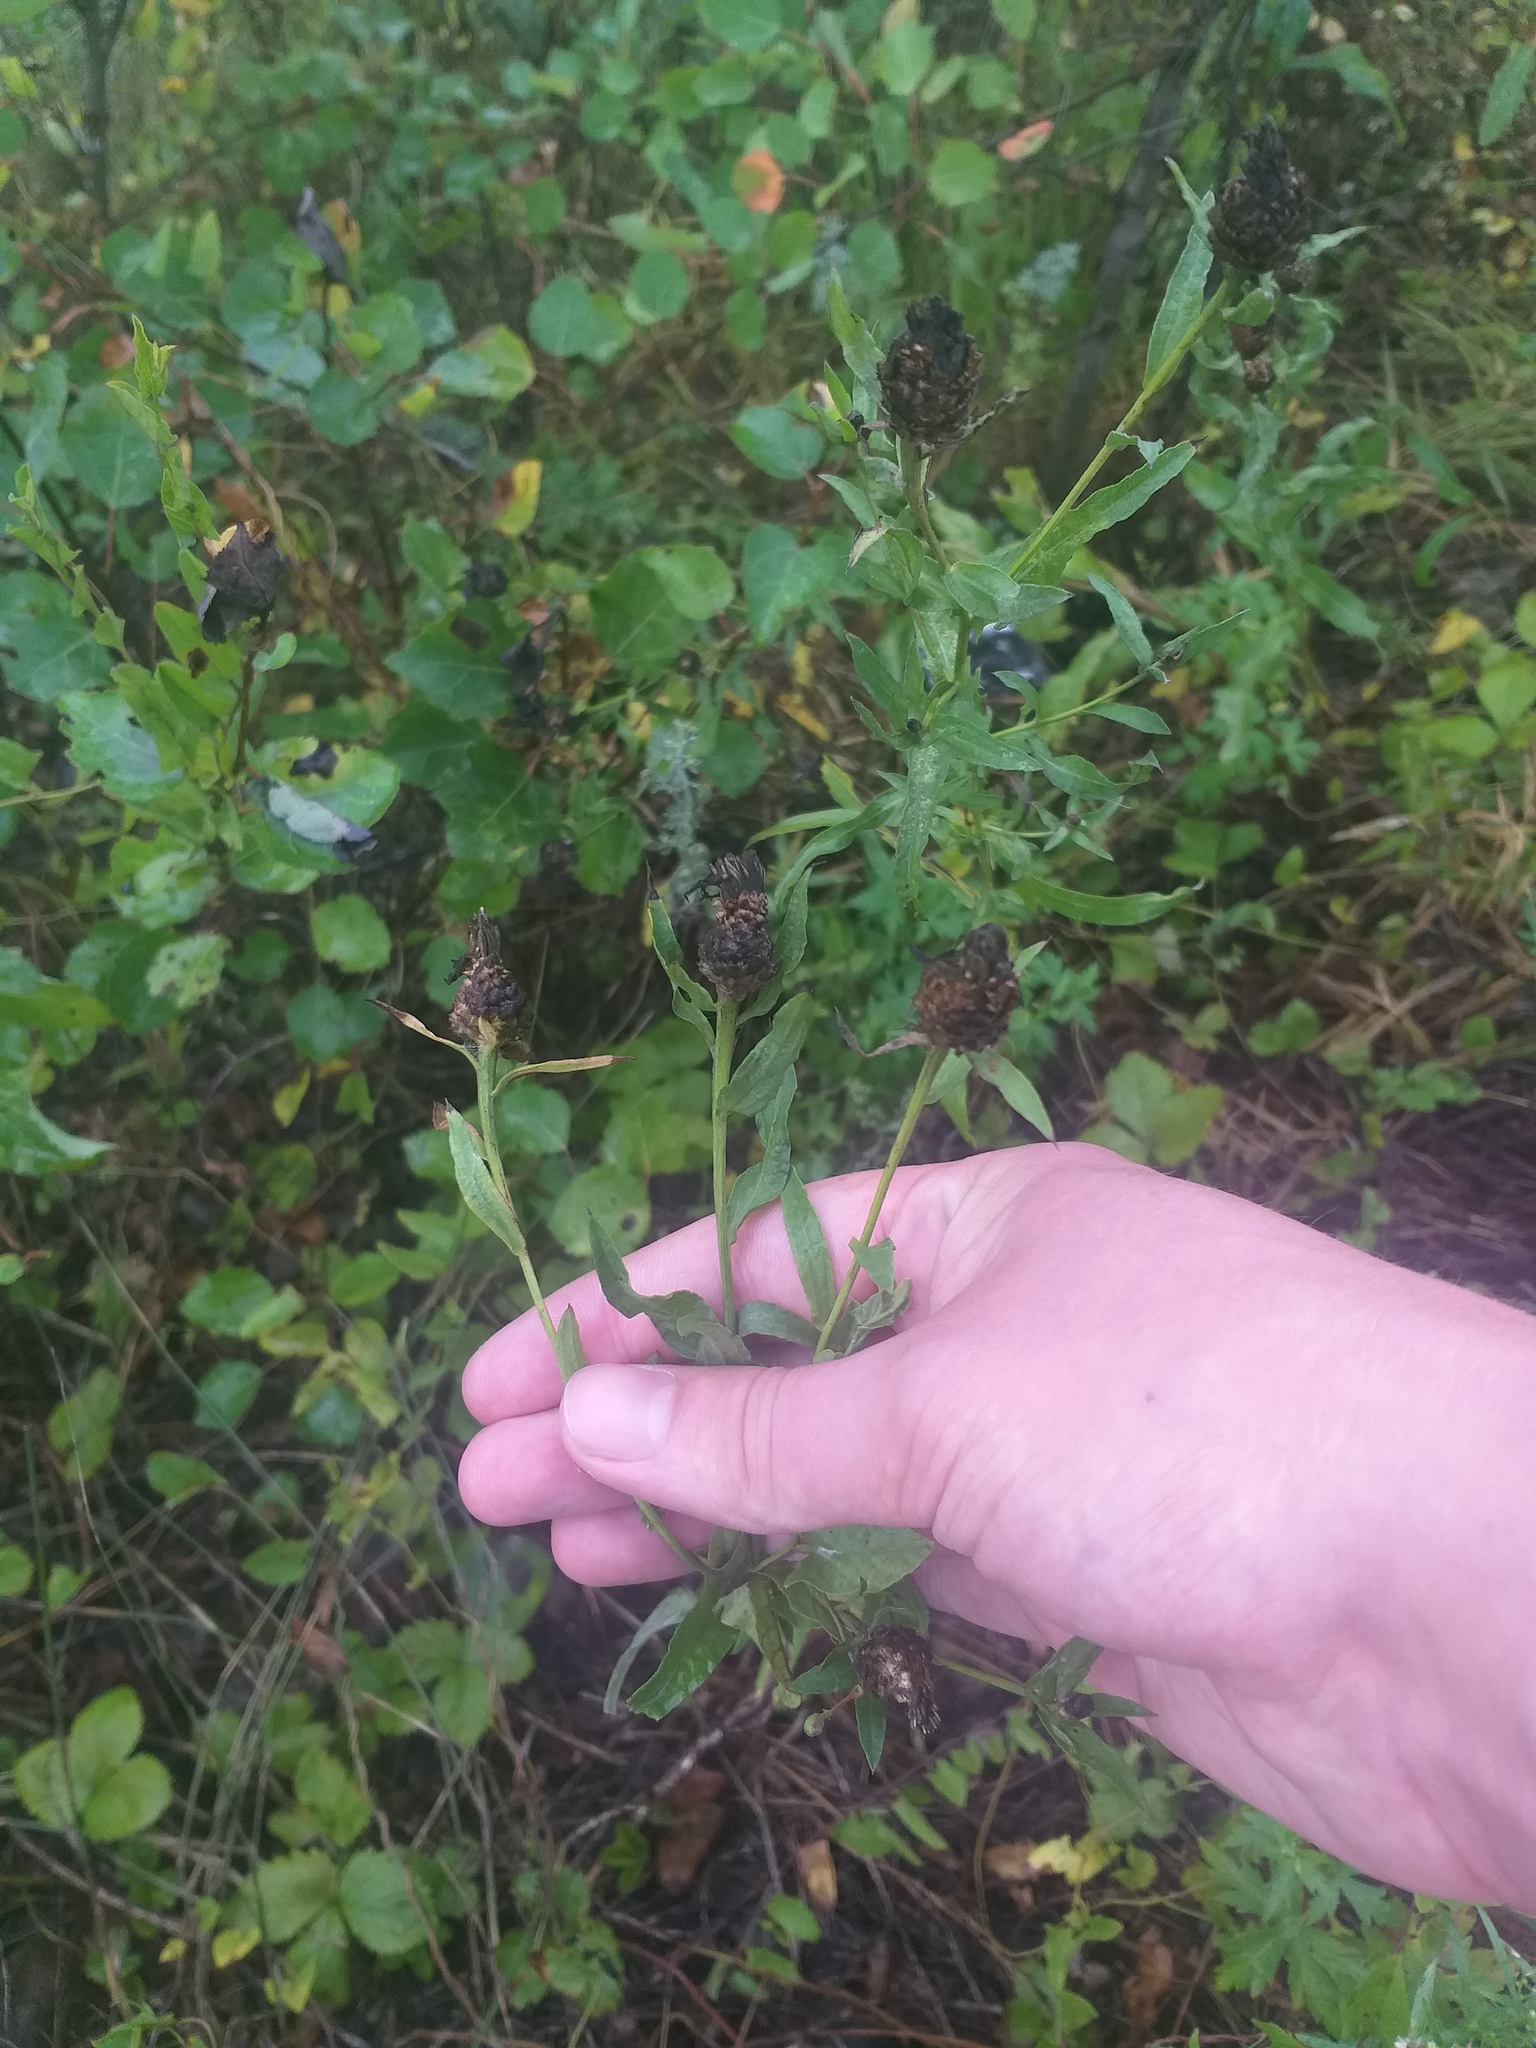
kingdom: Plantae
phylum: Tracheophyta
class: Magnoliopsida
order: Asterales
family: Asteraceae
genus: Centaurea
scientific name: Centaurea jacea
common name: Brown knapweed
